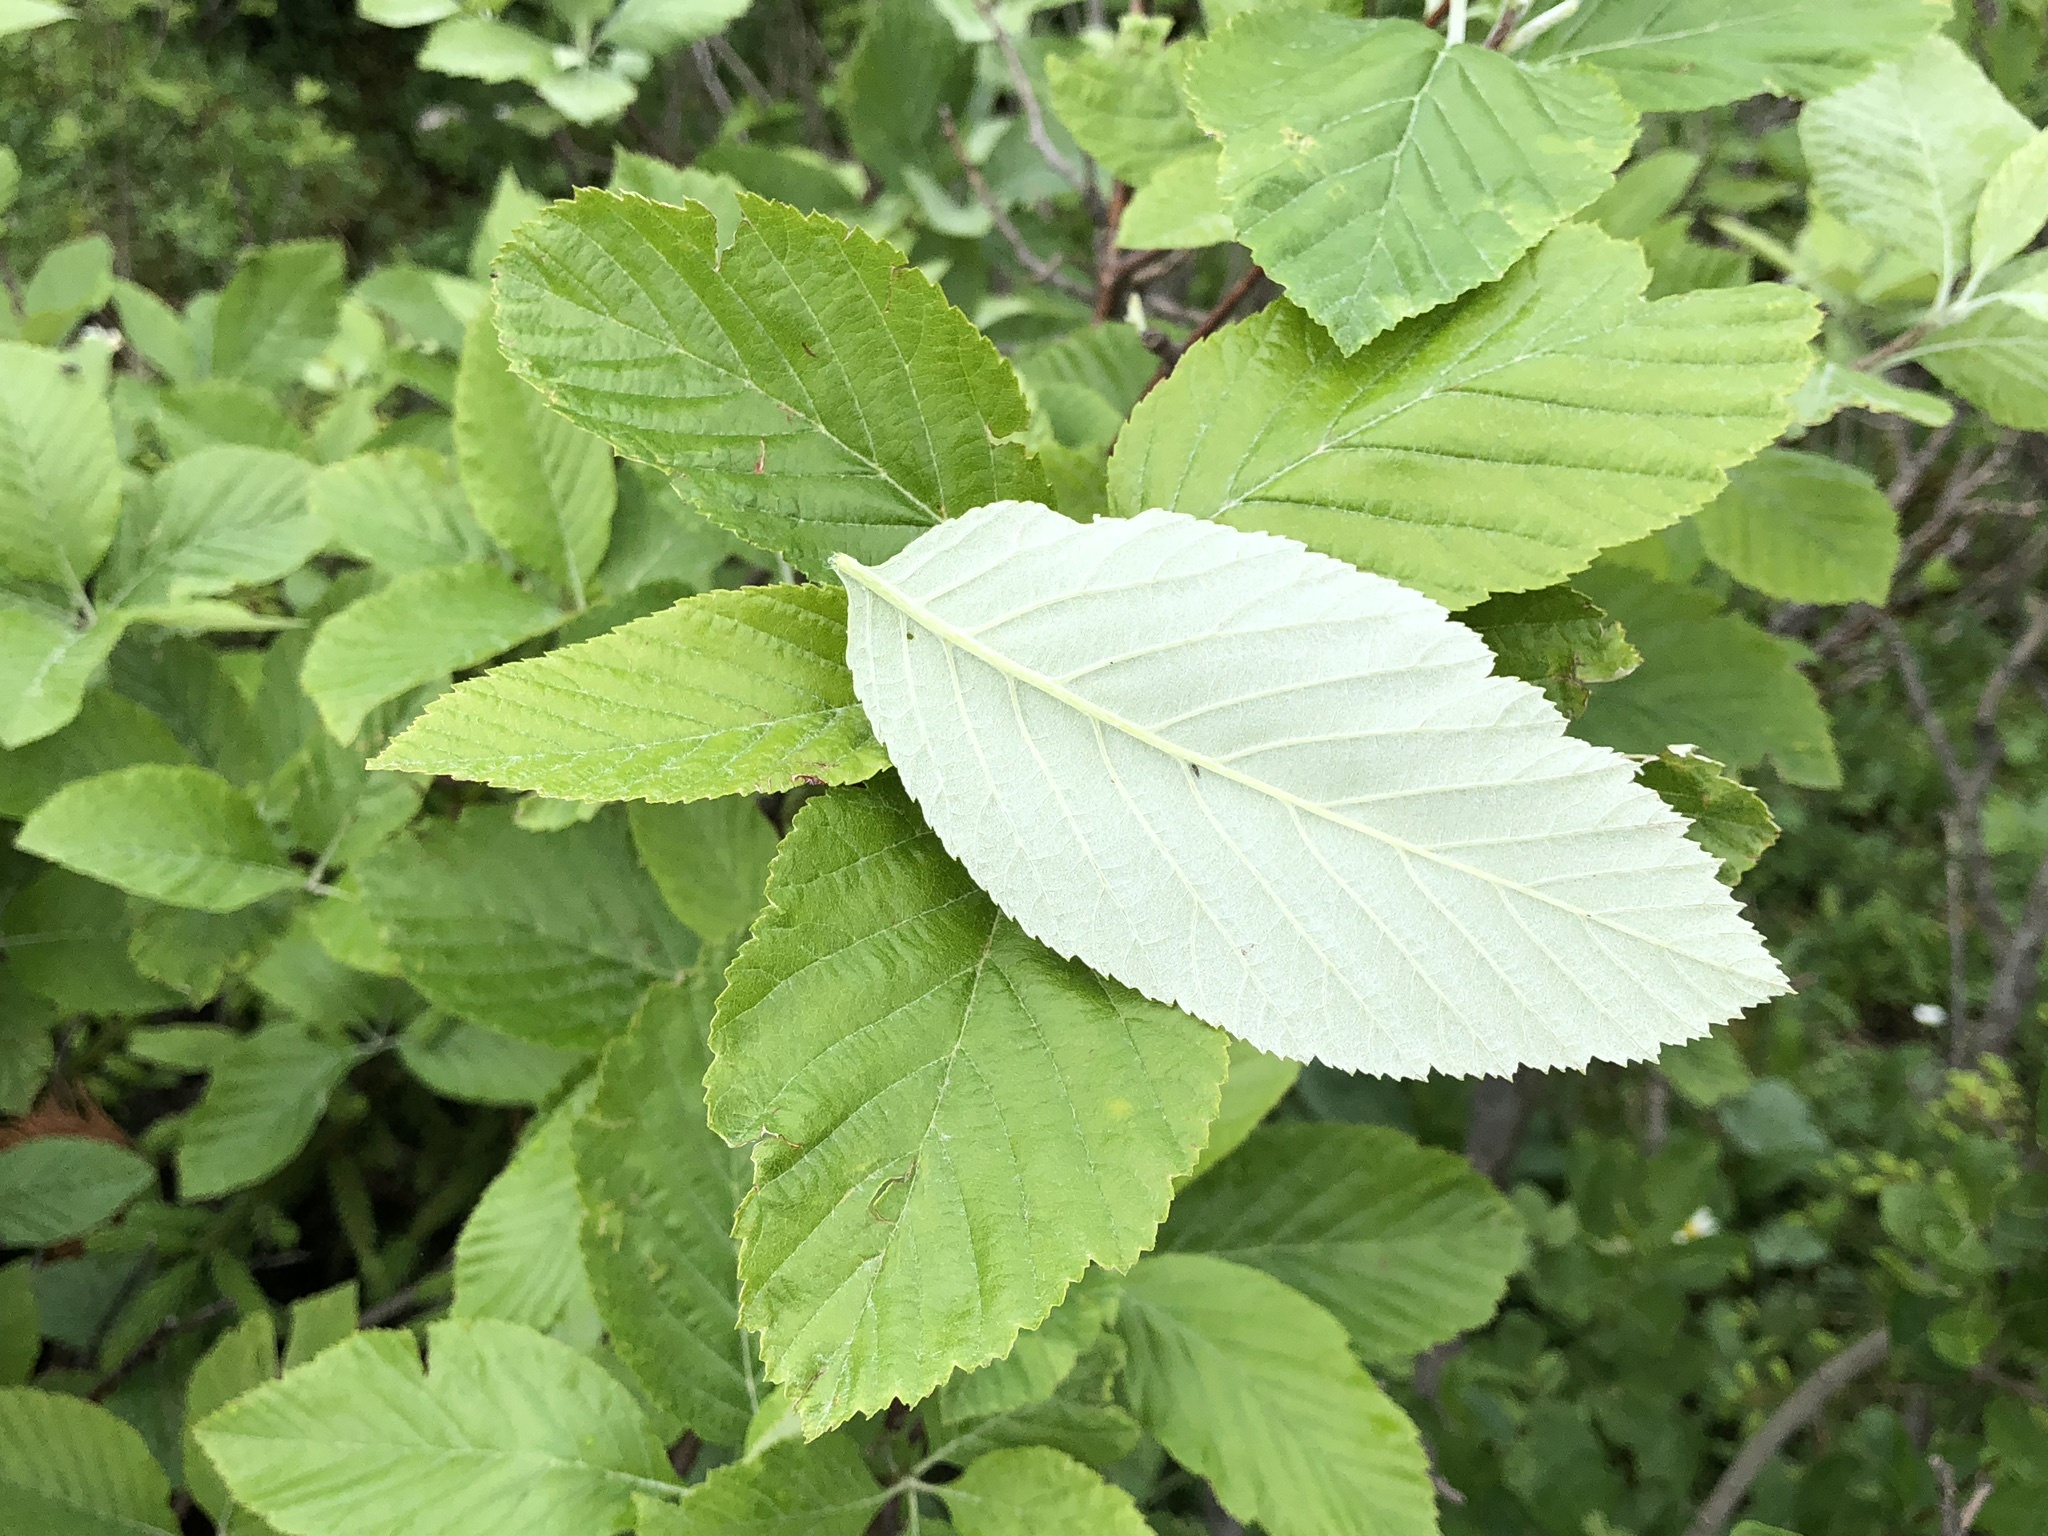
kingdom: Plantae
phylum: Tracheophyta
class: Magnoliopsida
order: Rosales
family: Rosaceae
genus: Aria
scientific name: Aria edulis
